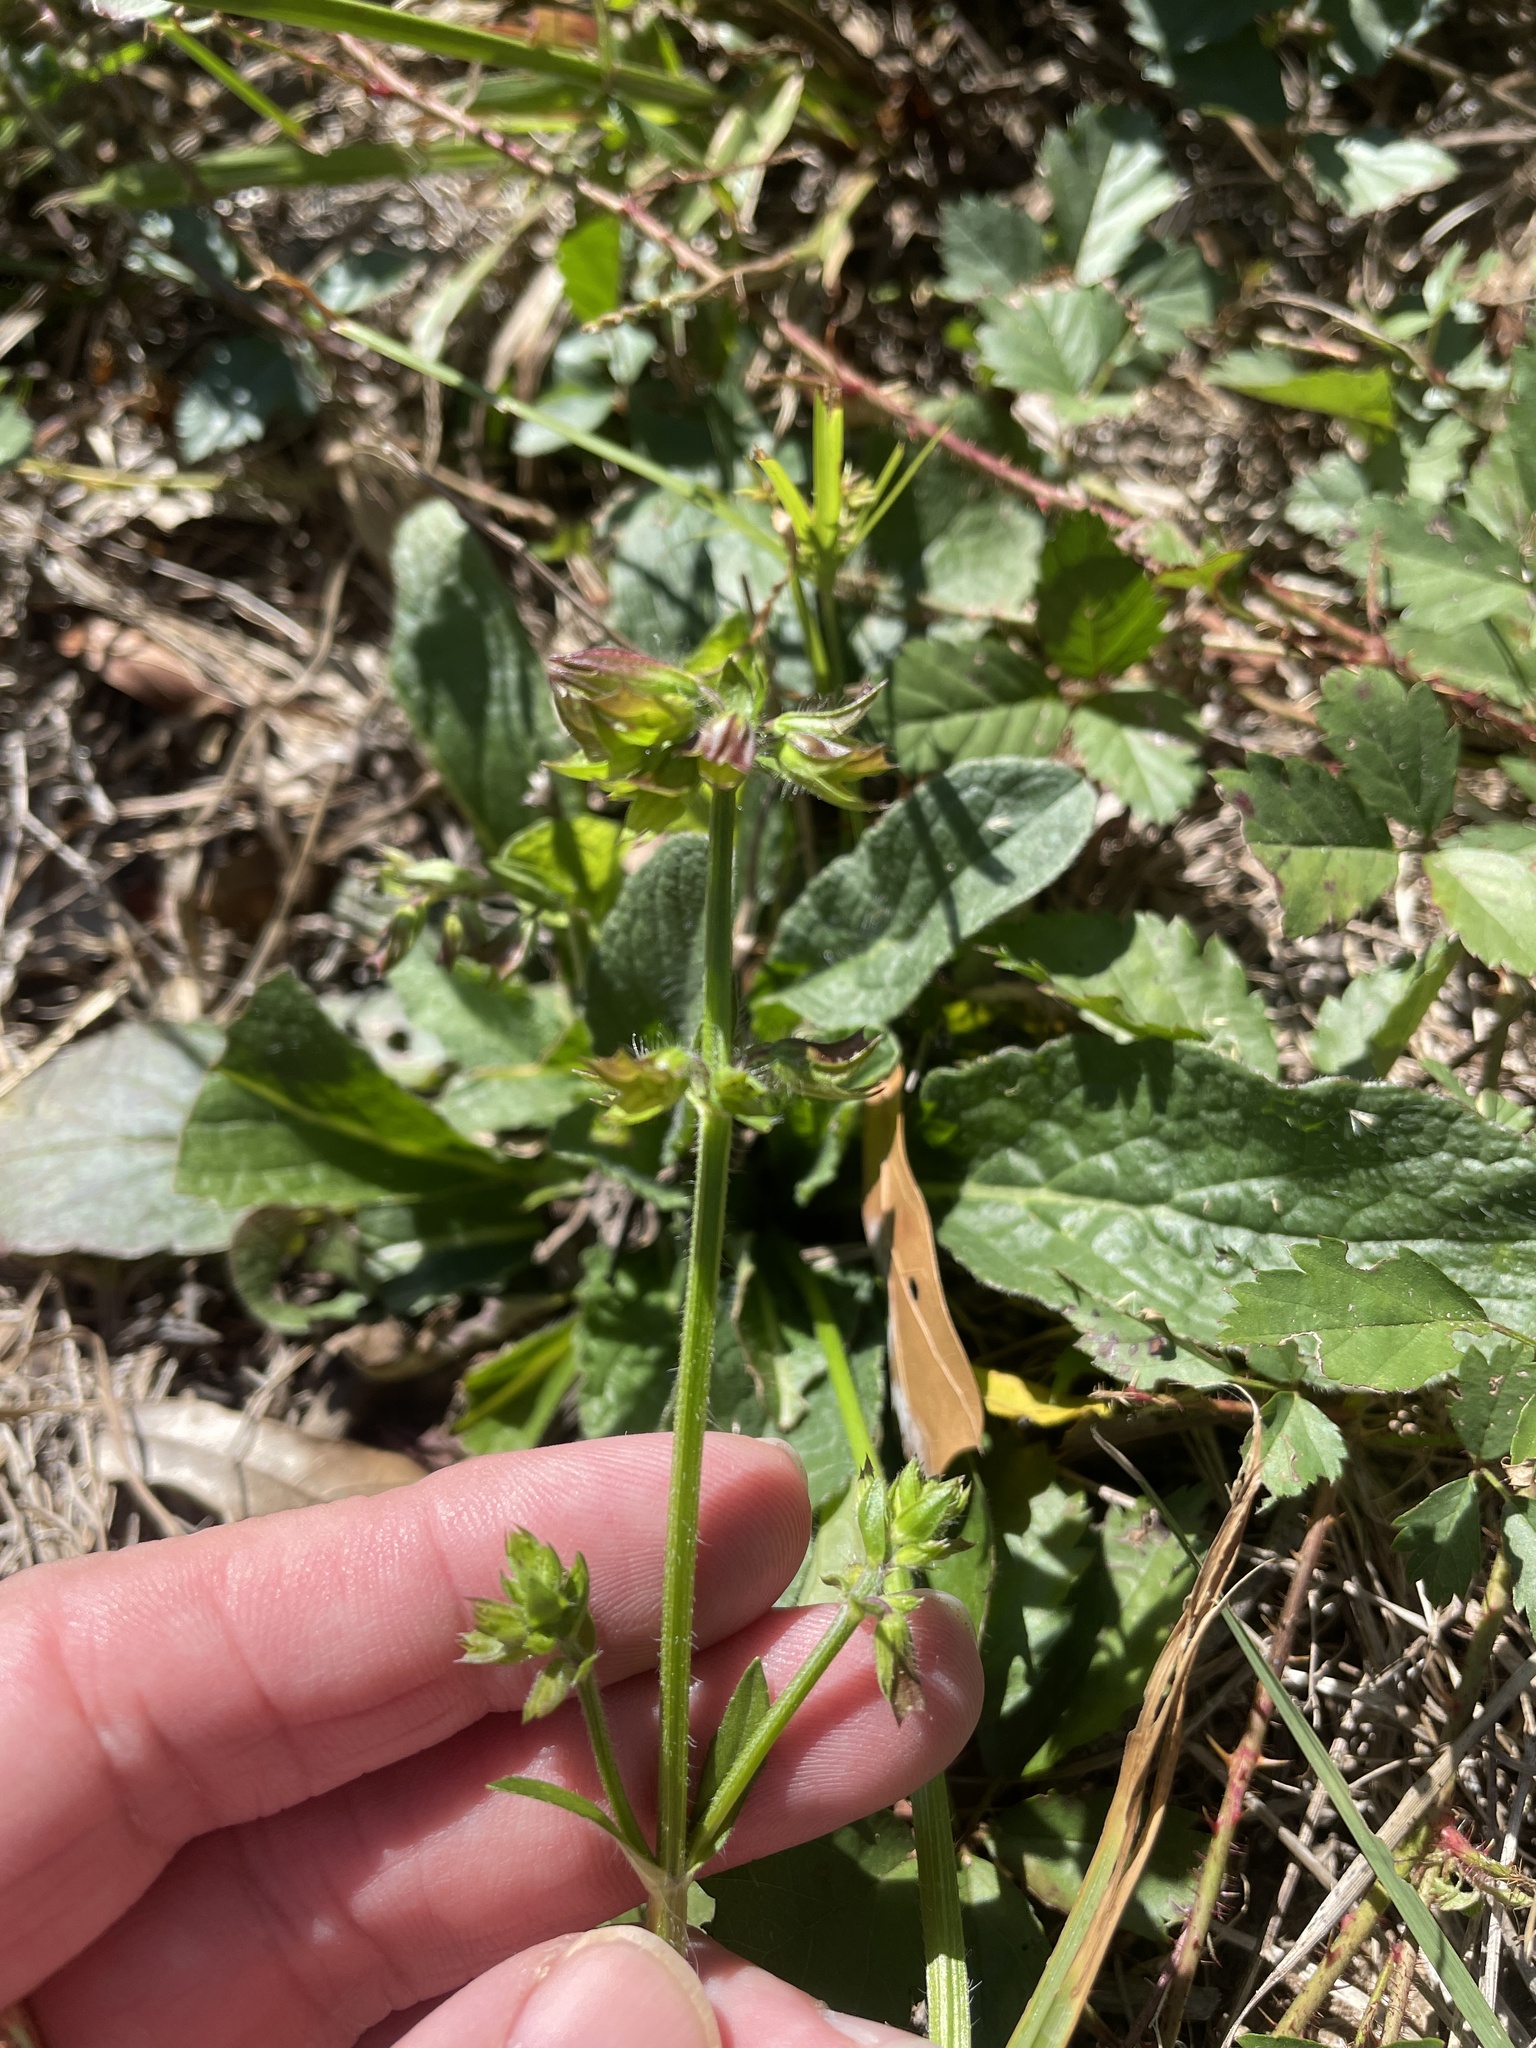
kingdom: Plantae
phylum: Tracheophyta
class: Magnoliopsida
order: Lamiales
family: Lamiaceae
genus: Salvia
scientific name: Salvia lyrata
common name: Cancerweed
